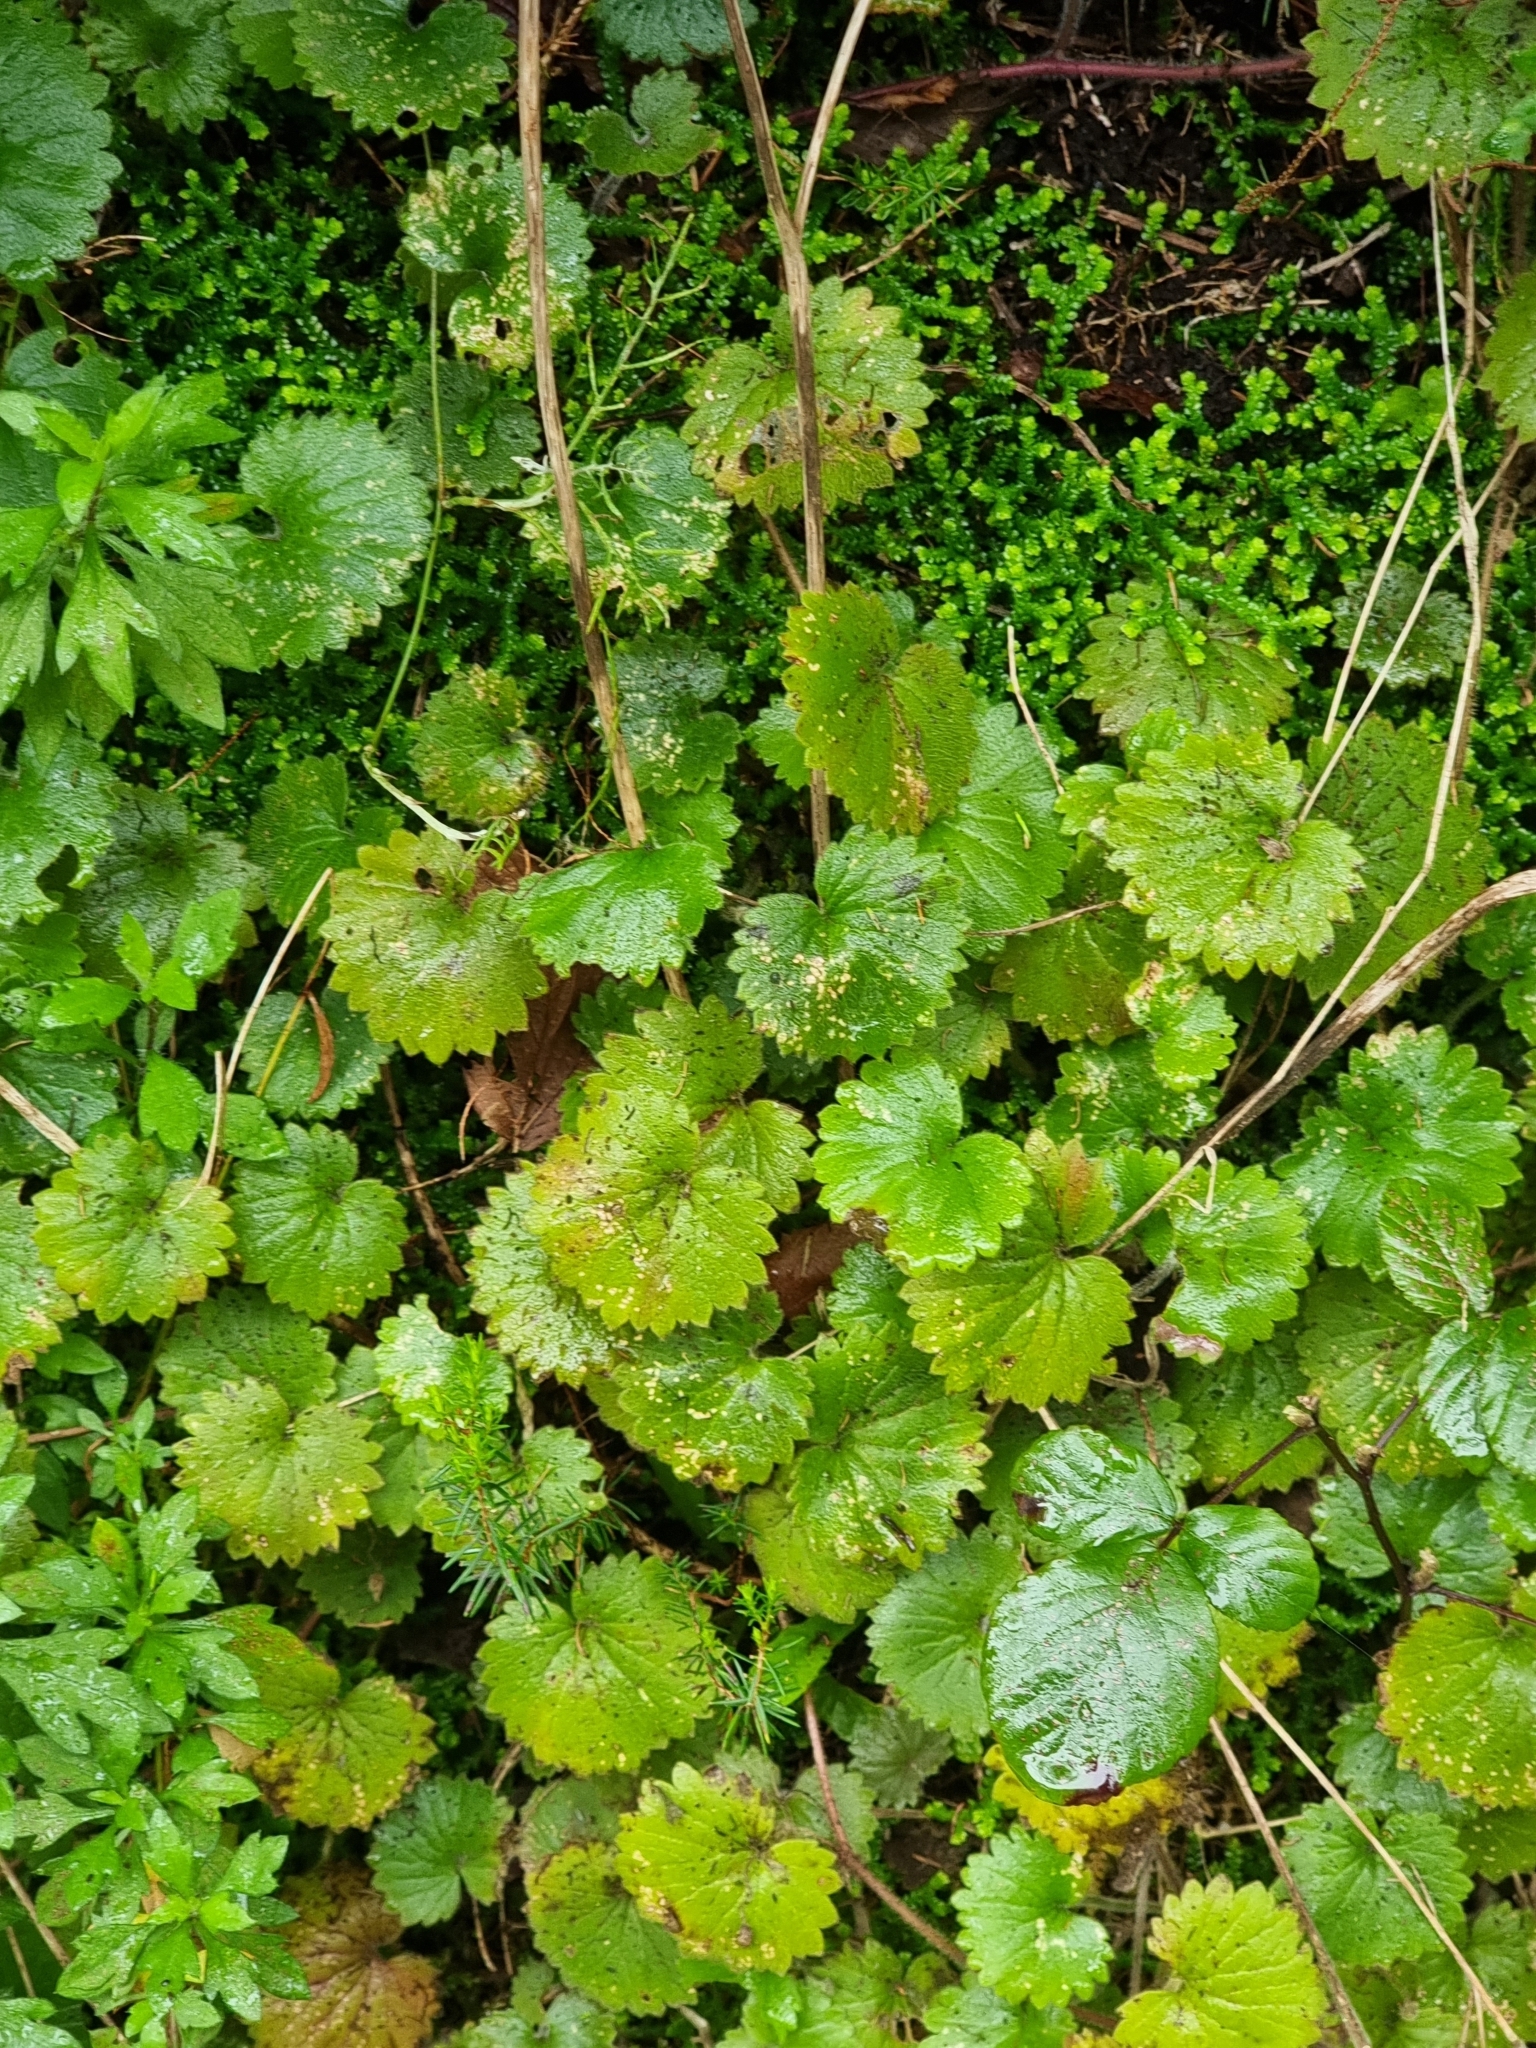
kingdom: Plantae
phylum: Tracheophyta
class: Magnoliopsida
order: Lamiales
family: Plantaginaceae
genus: Sibthorpia
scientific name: Sibthorpia peregrina
